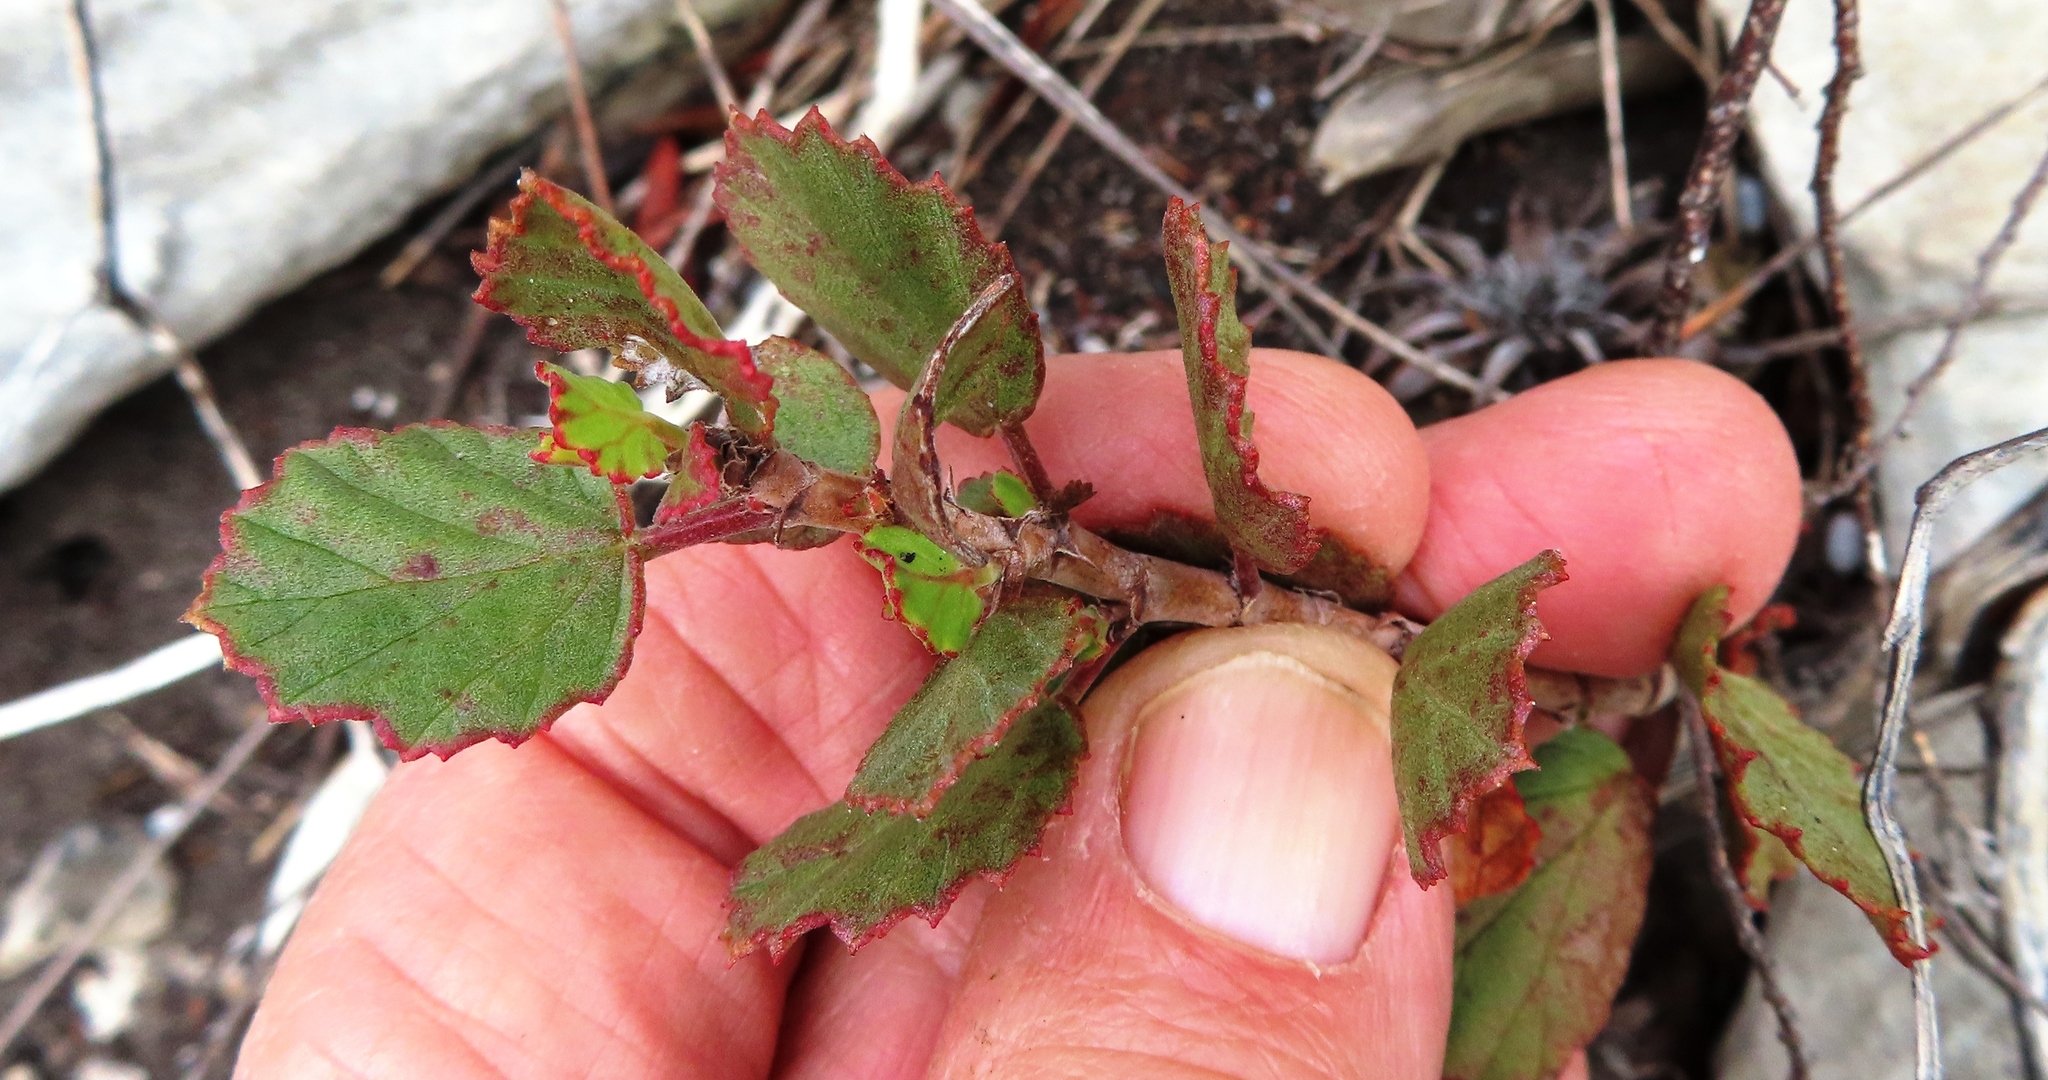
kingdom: Plantae
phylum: Tracheophyta
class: Magnoliopsida
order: Geraniales
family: Geraniaceae
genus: Pelargonium
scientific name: Pelargonium betulinum
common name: Birch-leaf pelargonium
